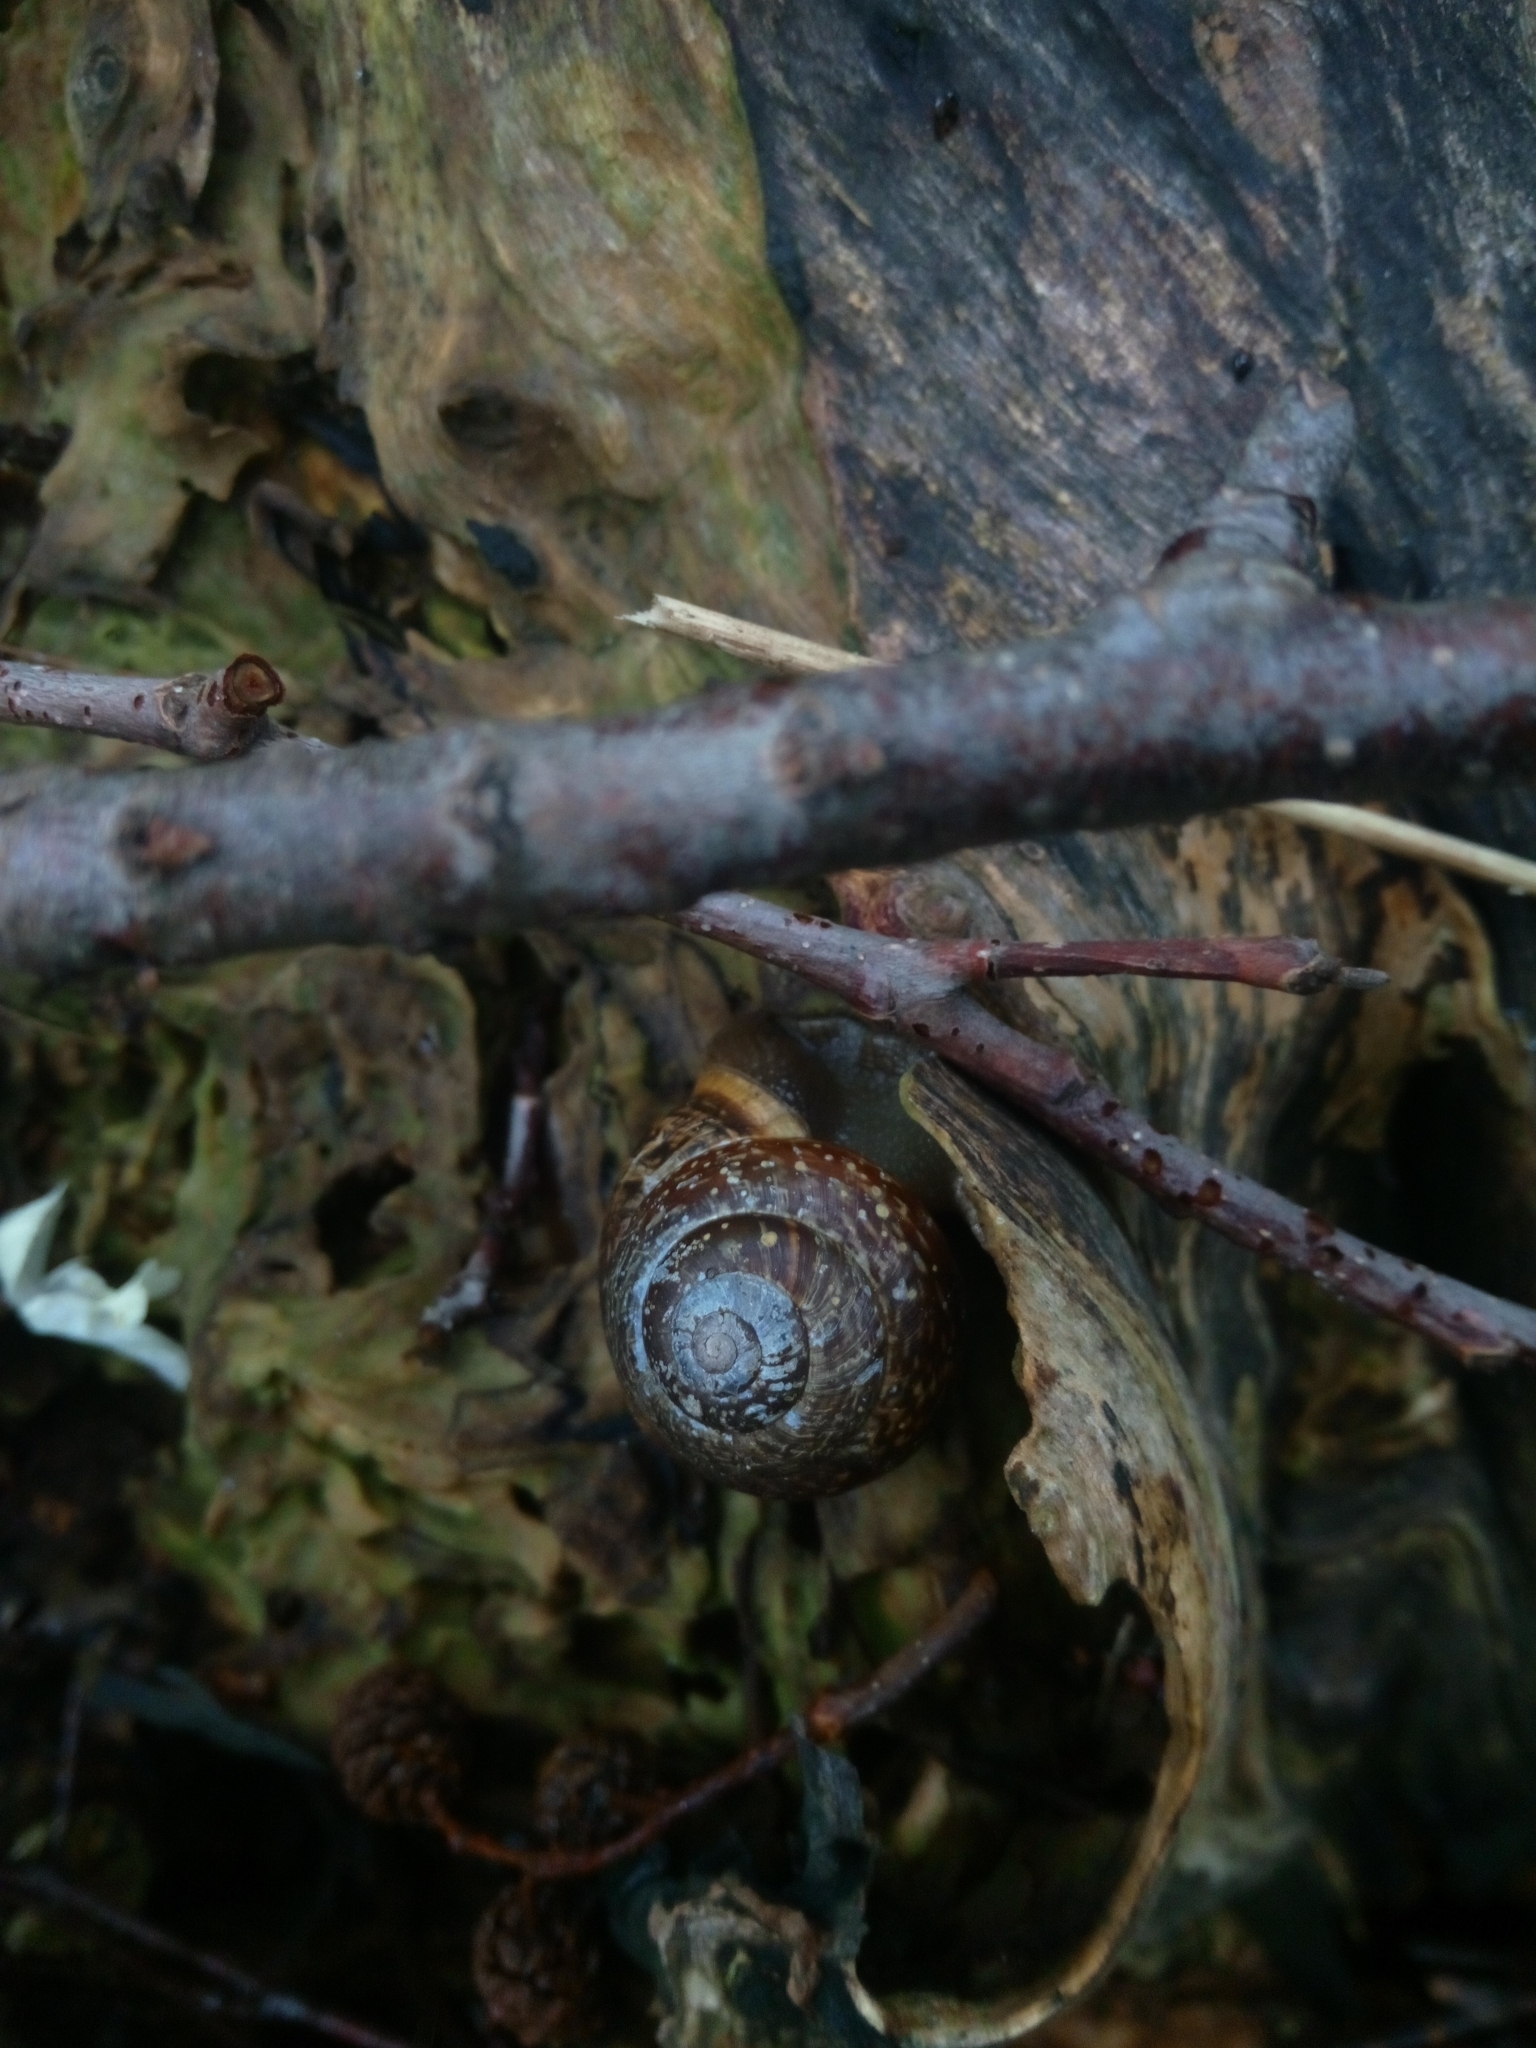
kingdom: Animalia
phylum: Mollusca
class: Gastropoda
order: Stylommatophora
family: Helicidae
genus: Arianta
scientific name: Arianta arbustorum
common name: Copse snail
